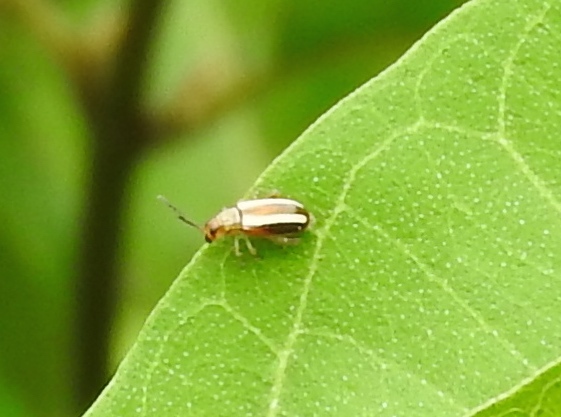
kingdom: Animalia
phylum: Arthropoda
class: Insecta
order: Coleoptera
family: Chrysomelidae
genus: Systena
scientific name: Systena
